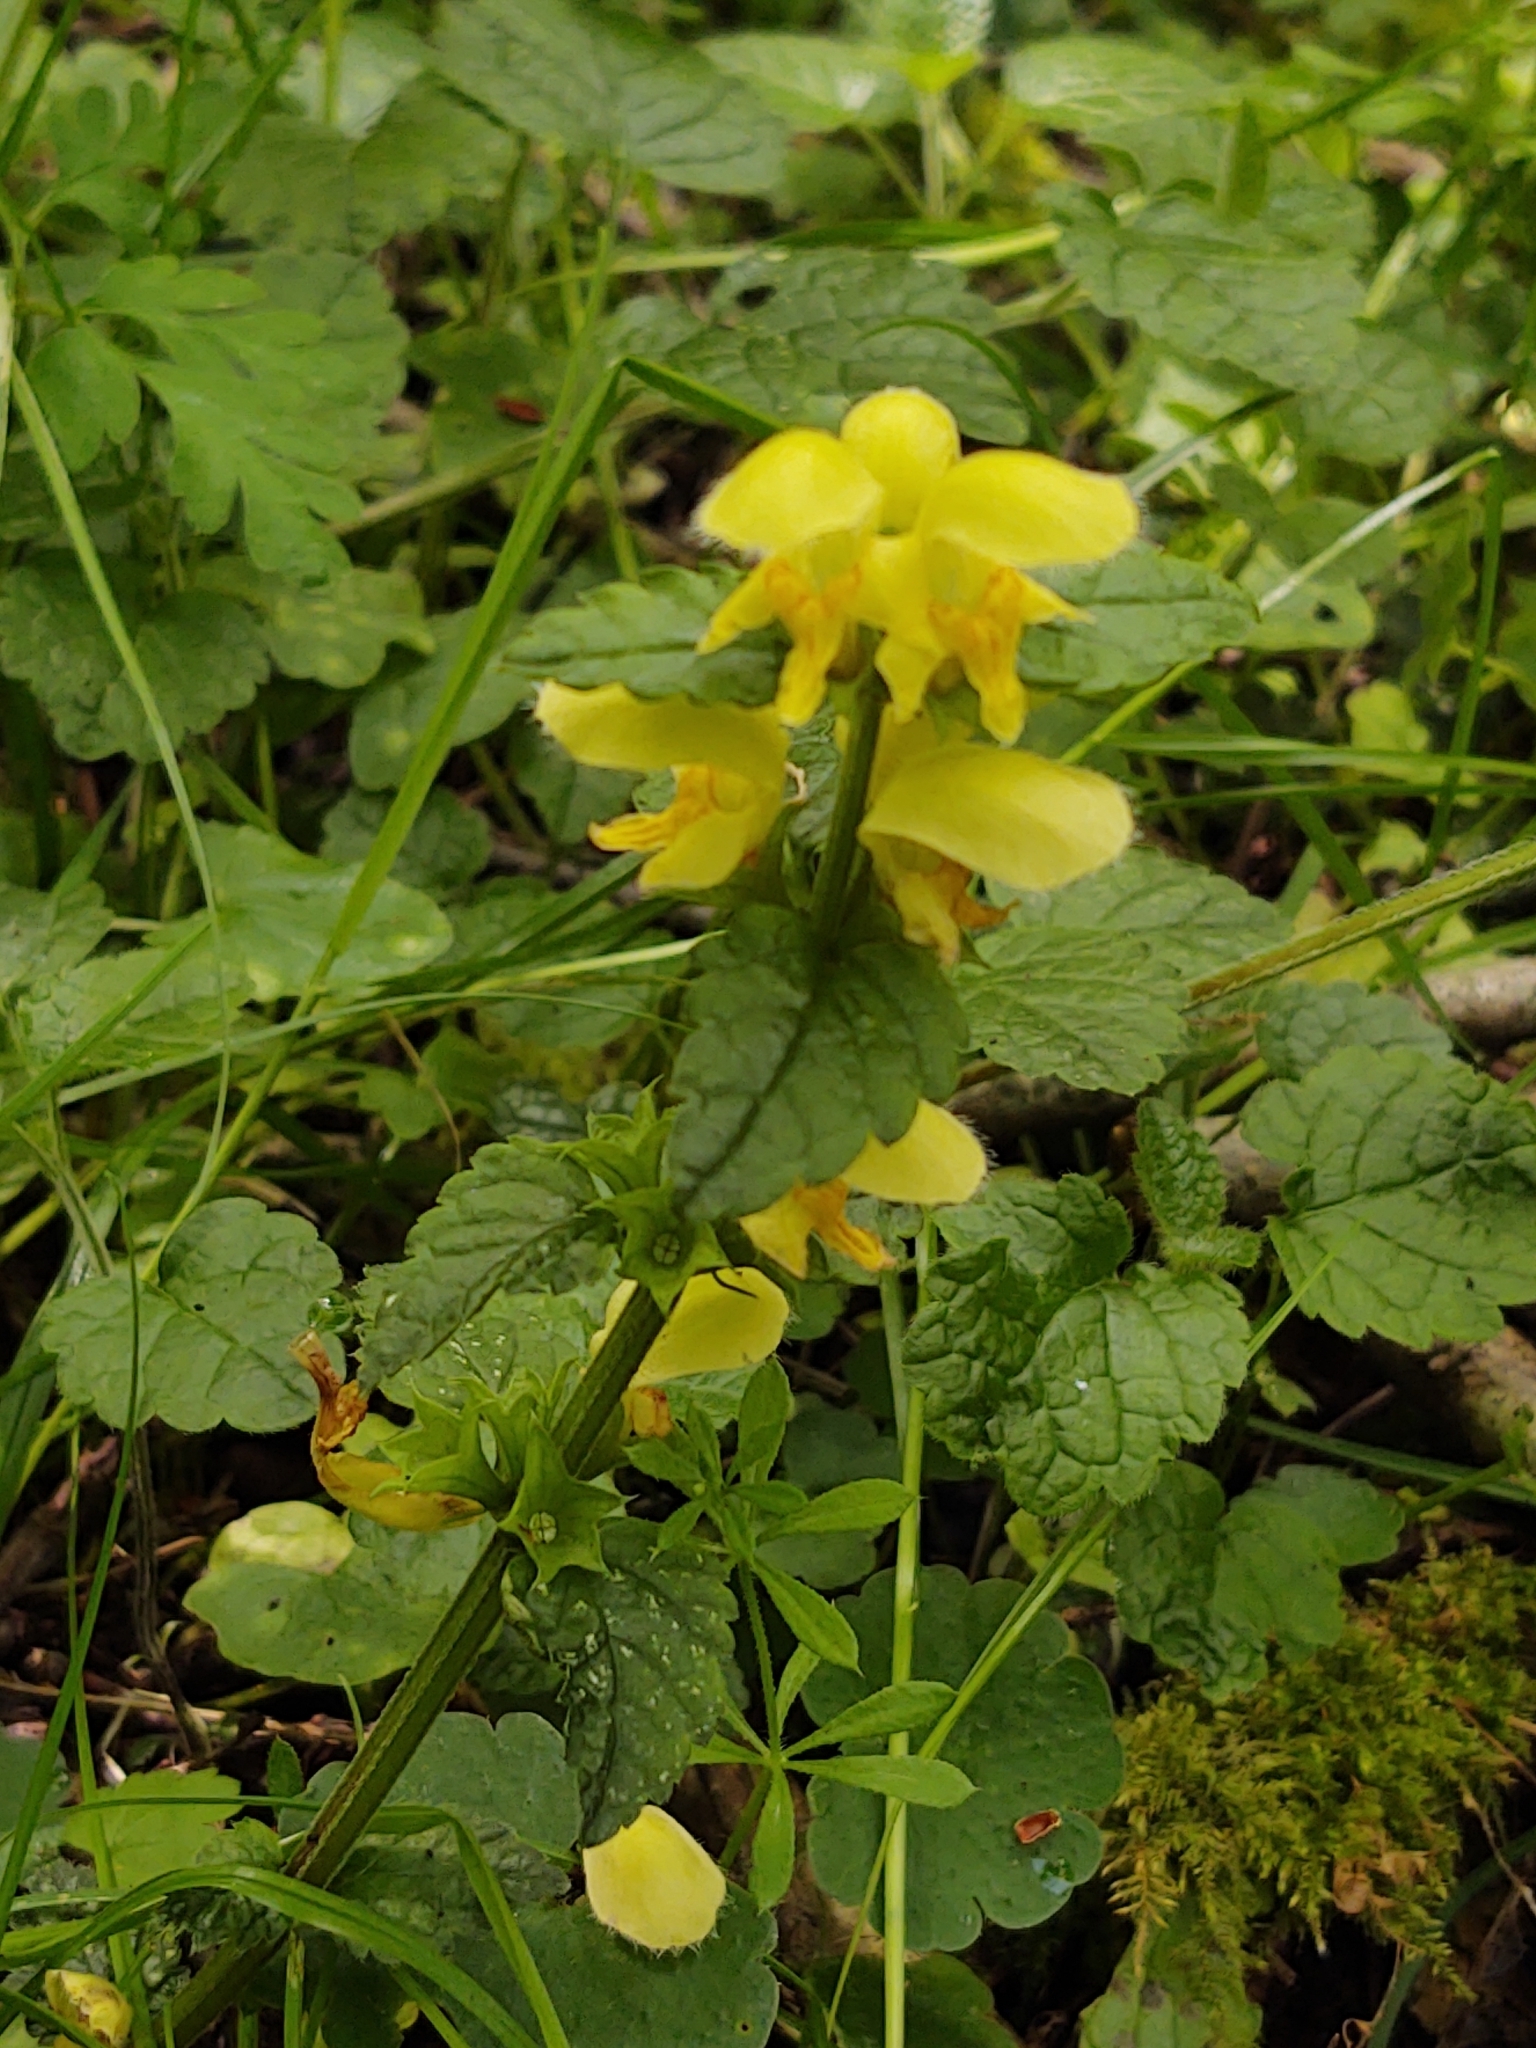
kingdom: Plantae
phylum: Tracheophyta
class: Magnoliopsida
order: Lamiales
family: Lamiaceae
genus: Lamium
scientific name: Lamium galeobdolon
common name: Yellow archangel
